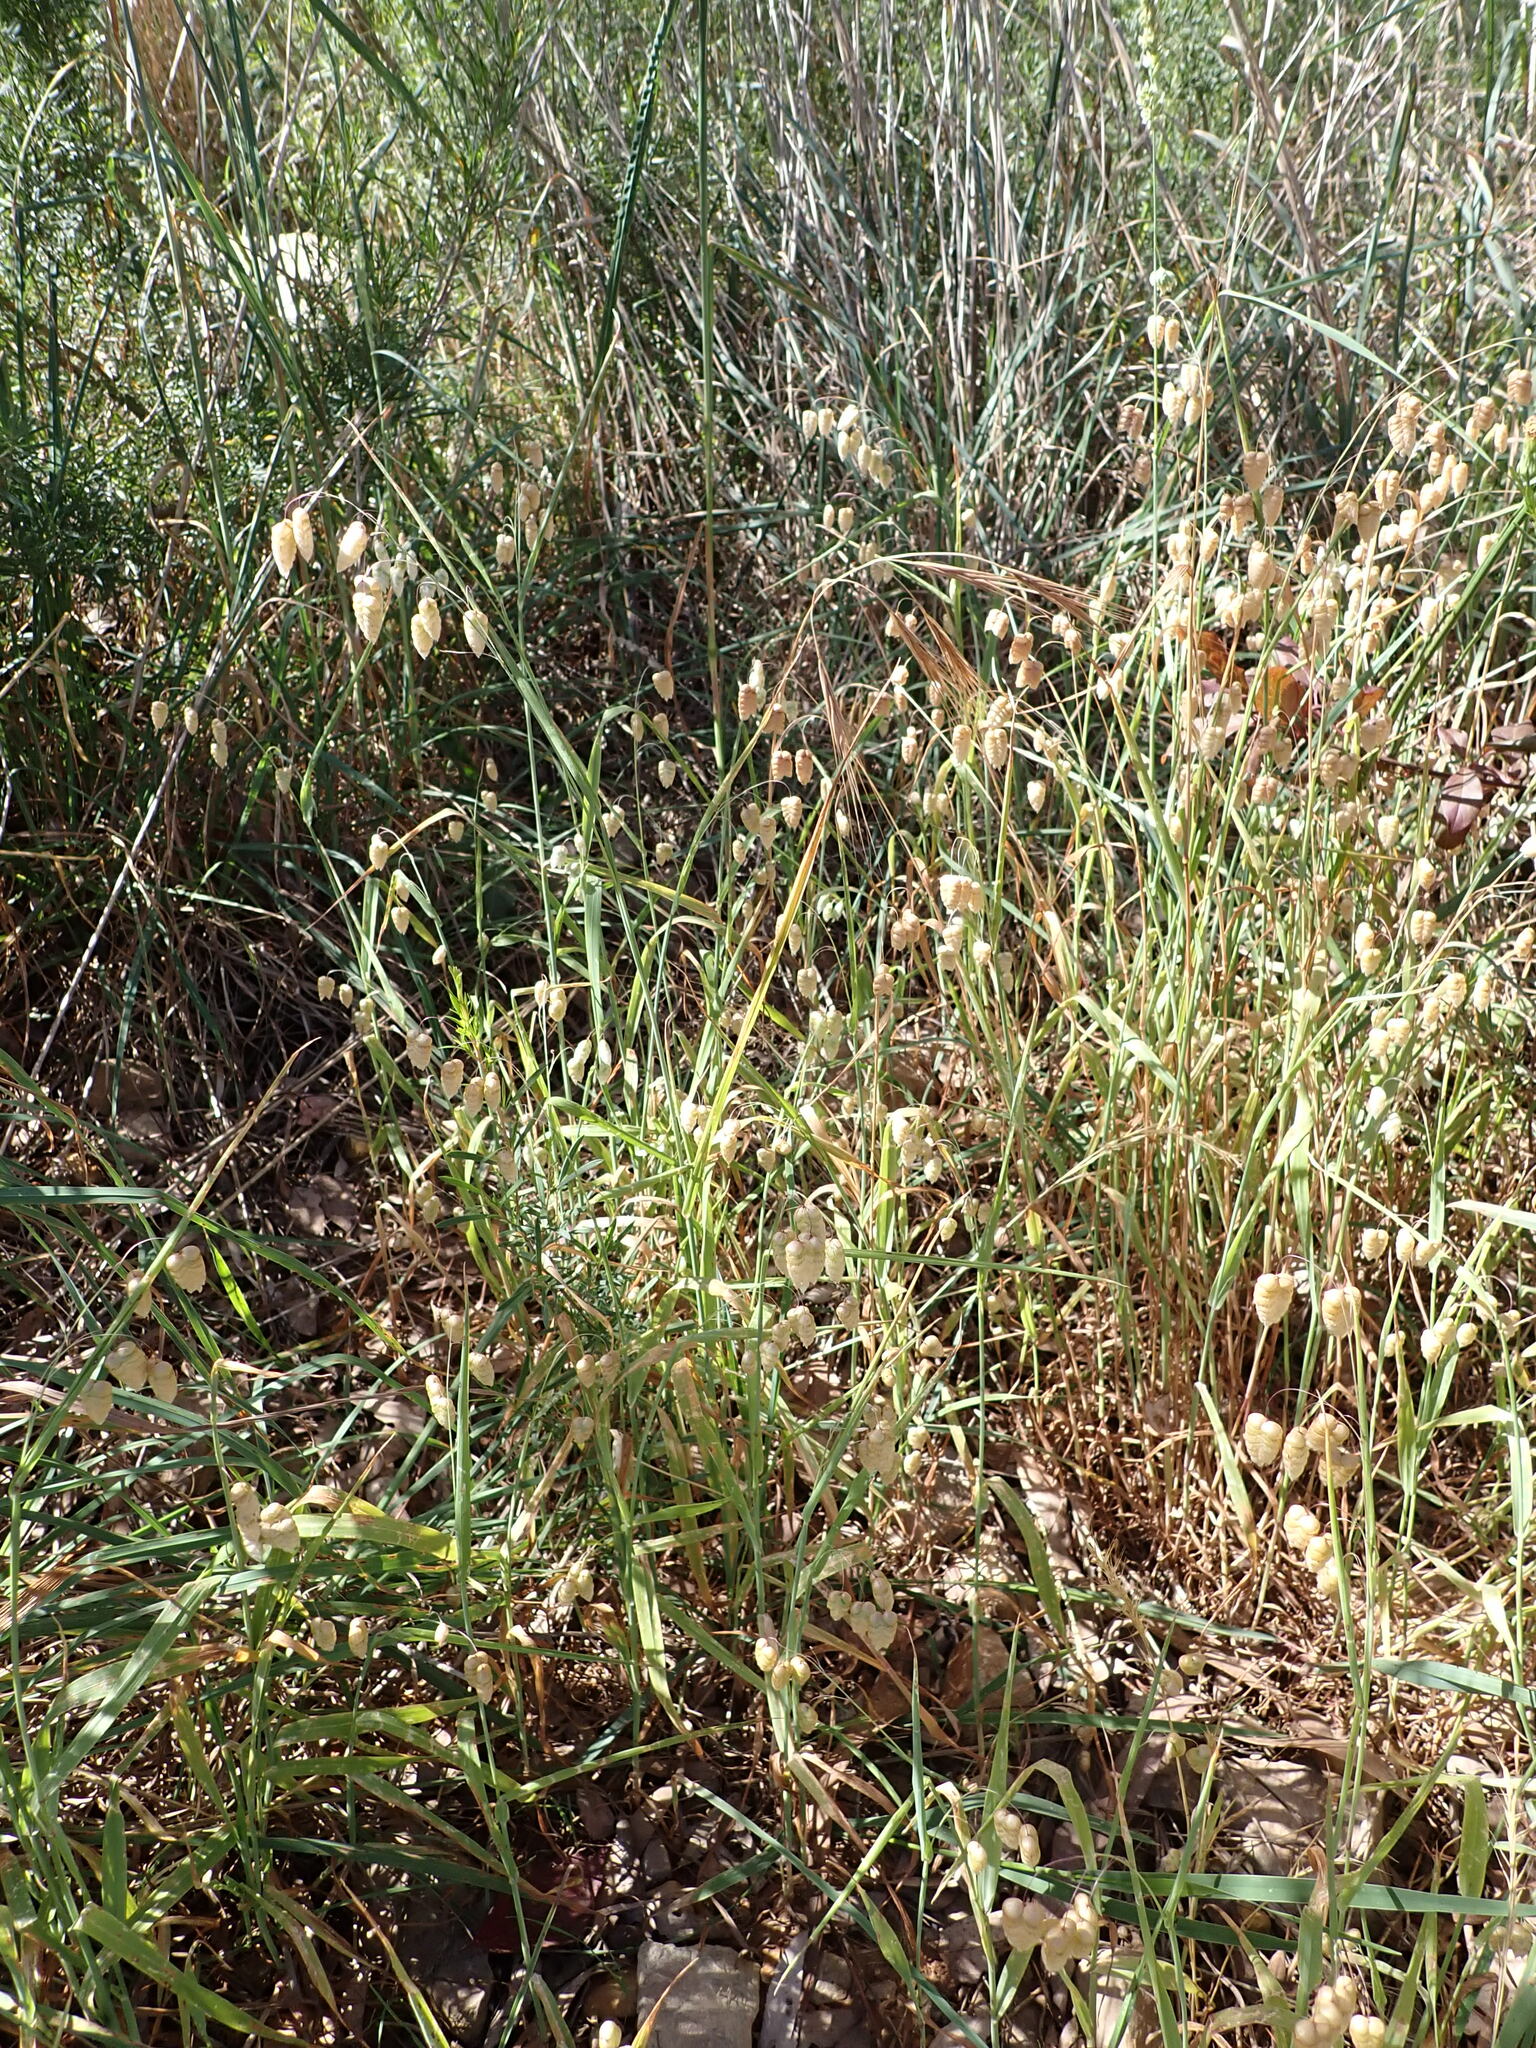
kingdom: Plantae
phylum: Tracheophyta
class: Liliopsida
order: Poales
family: Poaceae
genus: Briza
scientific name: Briza maxima
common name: Big quakinggrass
